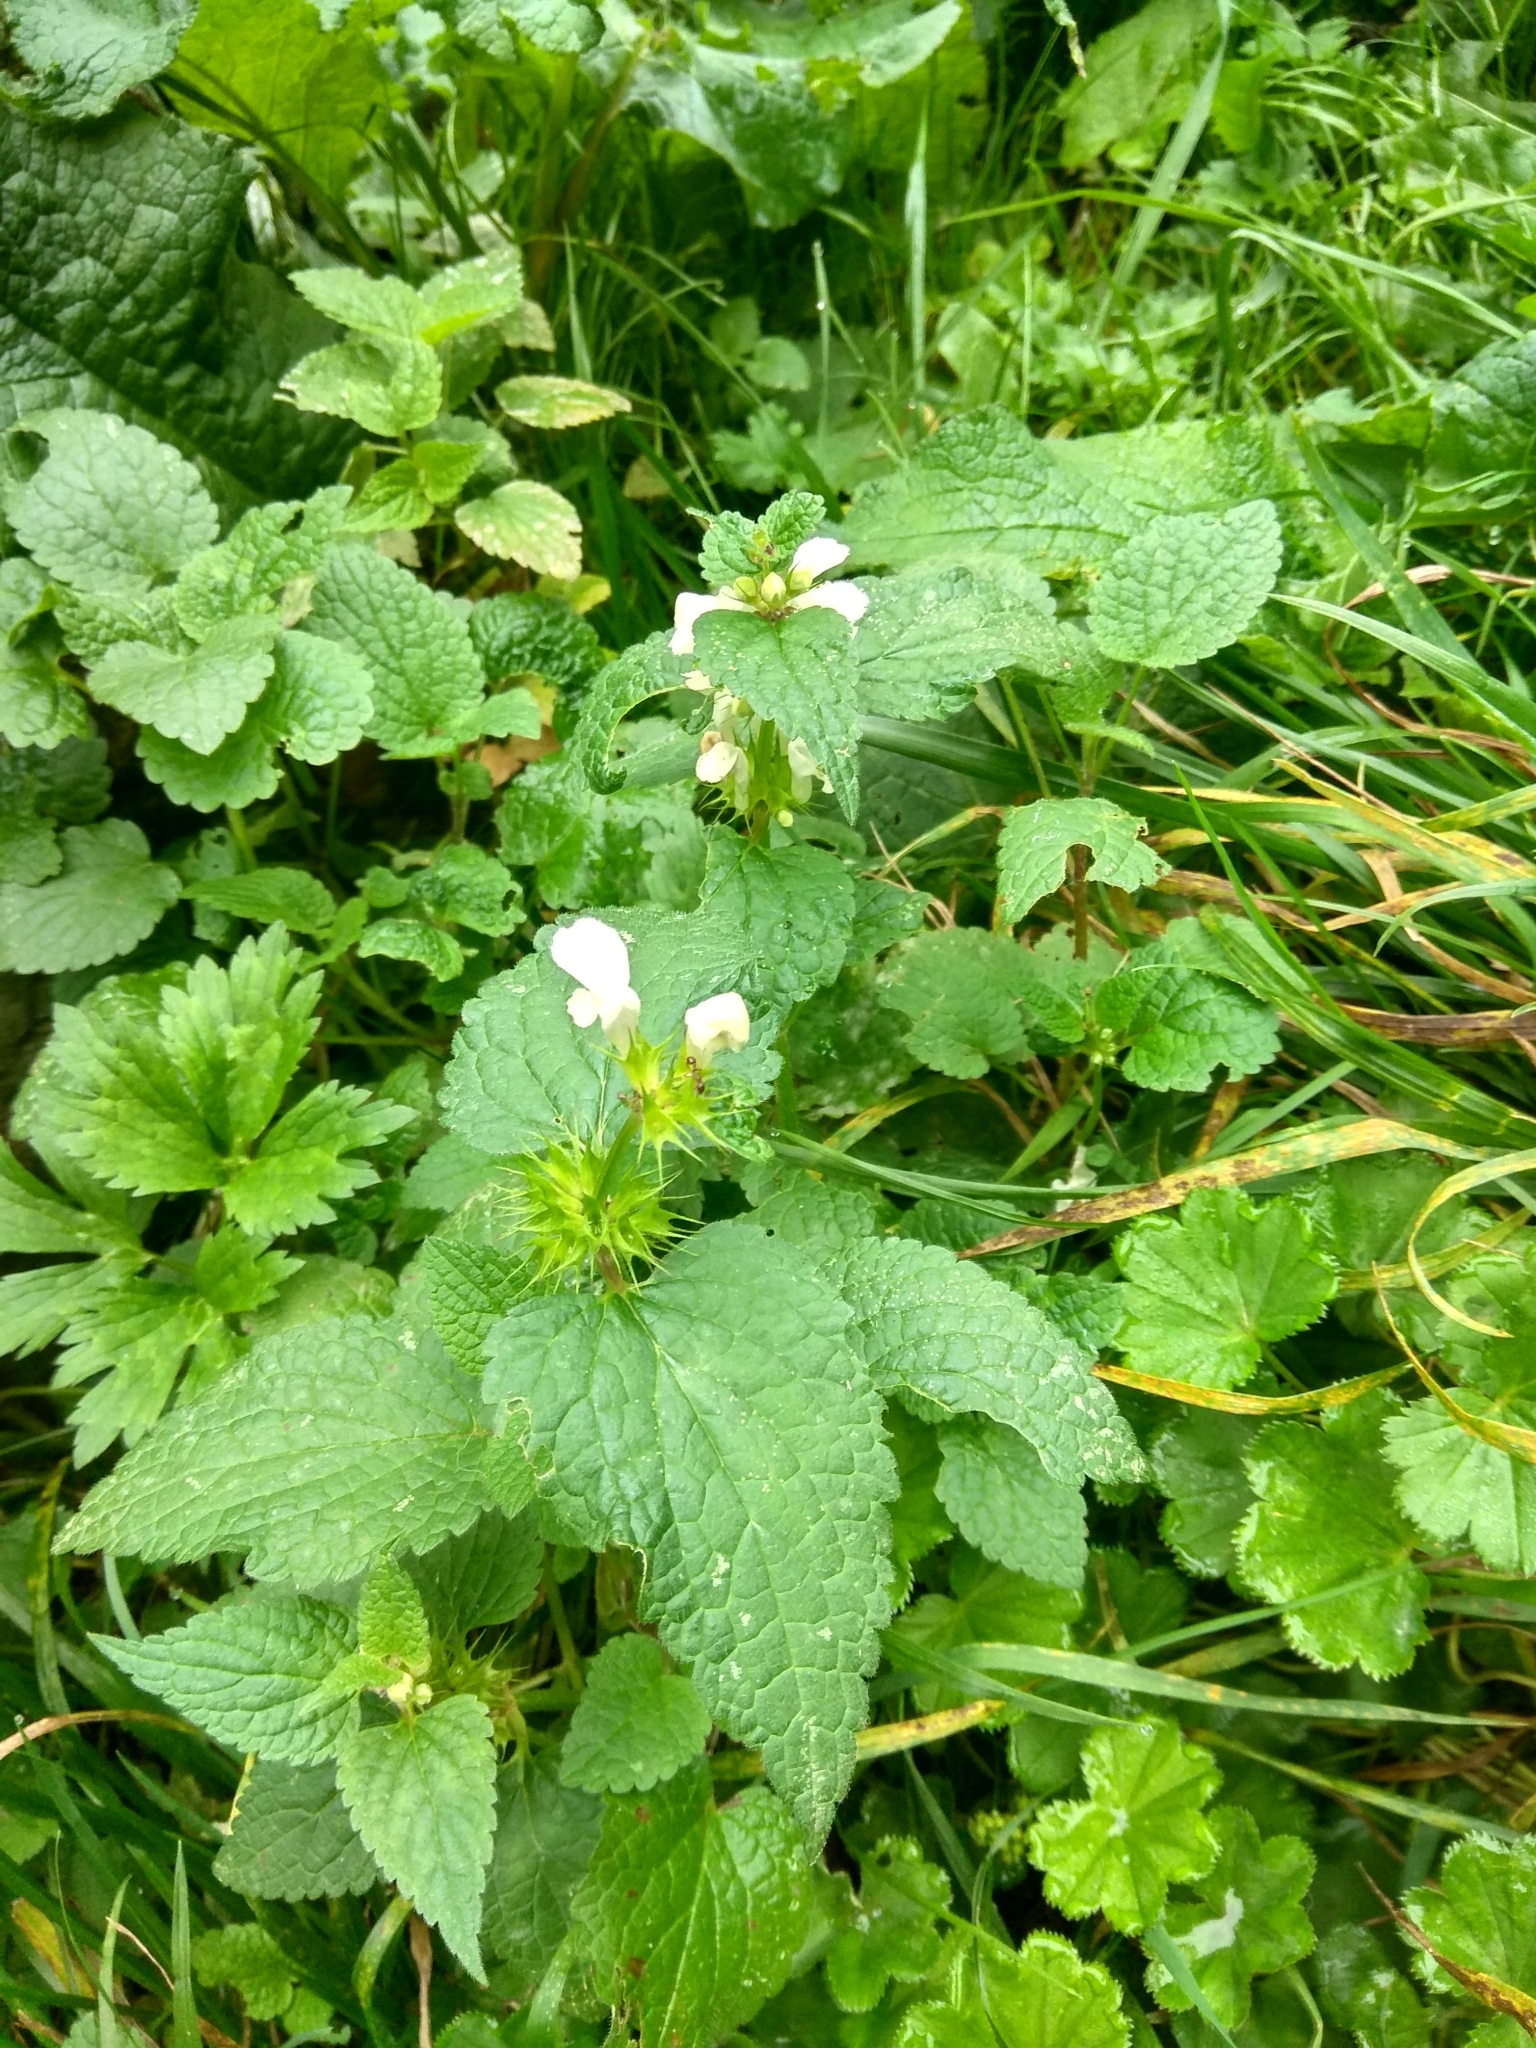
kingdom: Plantae
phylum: Tracheophyta
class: Magnoliopsida
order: Lamiales
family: Lamiaceae
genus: Lamium
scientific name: Lamium album
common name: White dead-nettle
